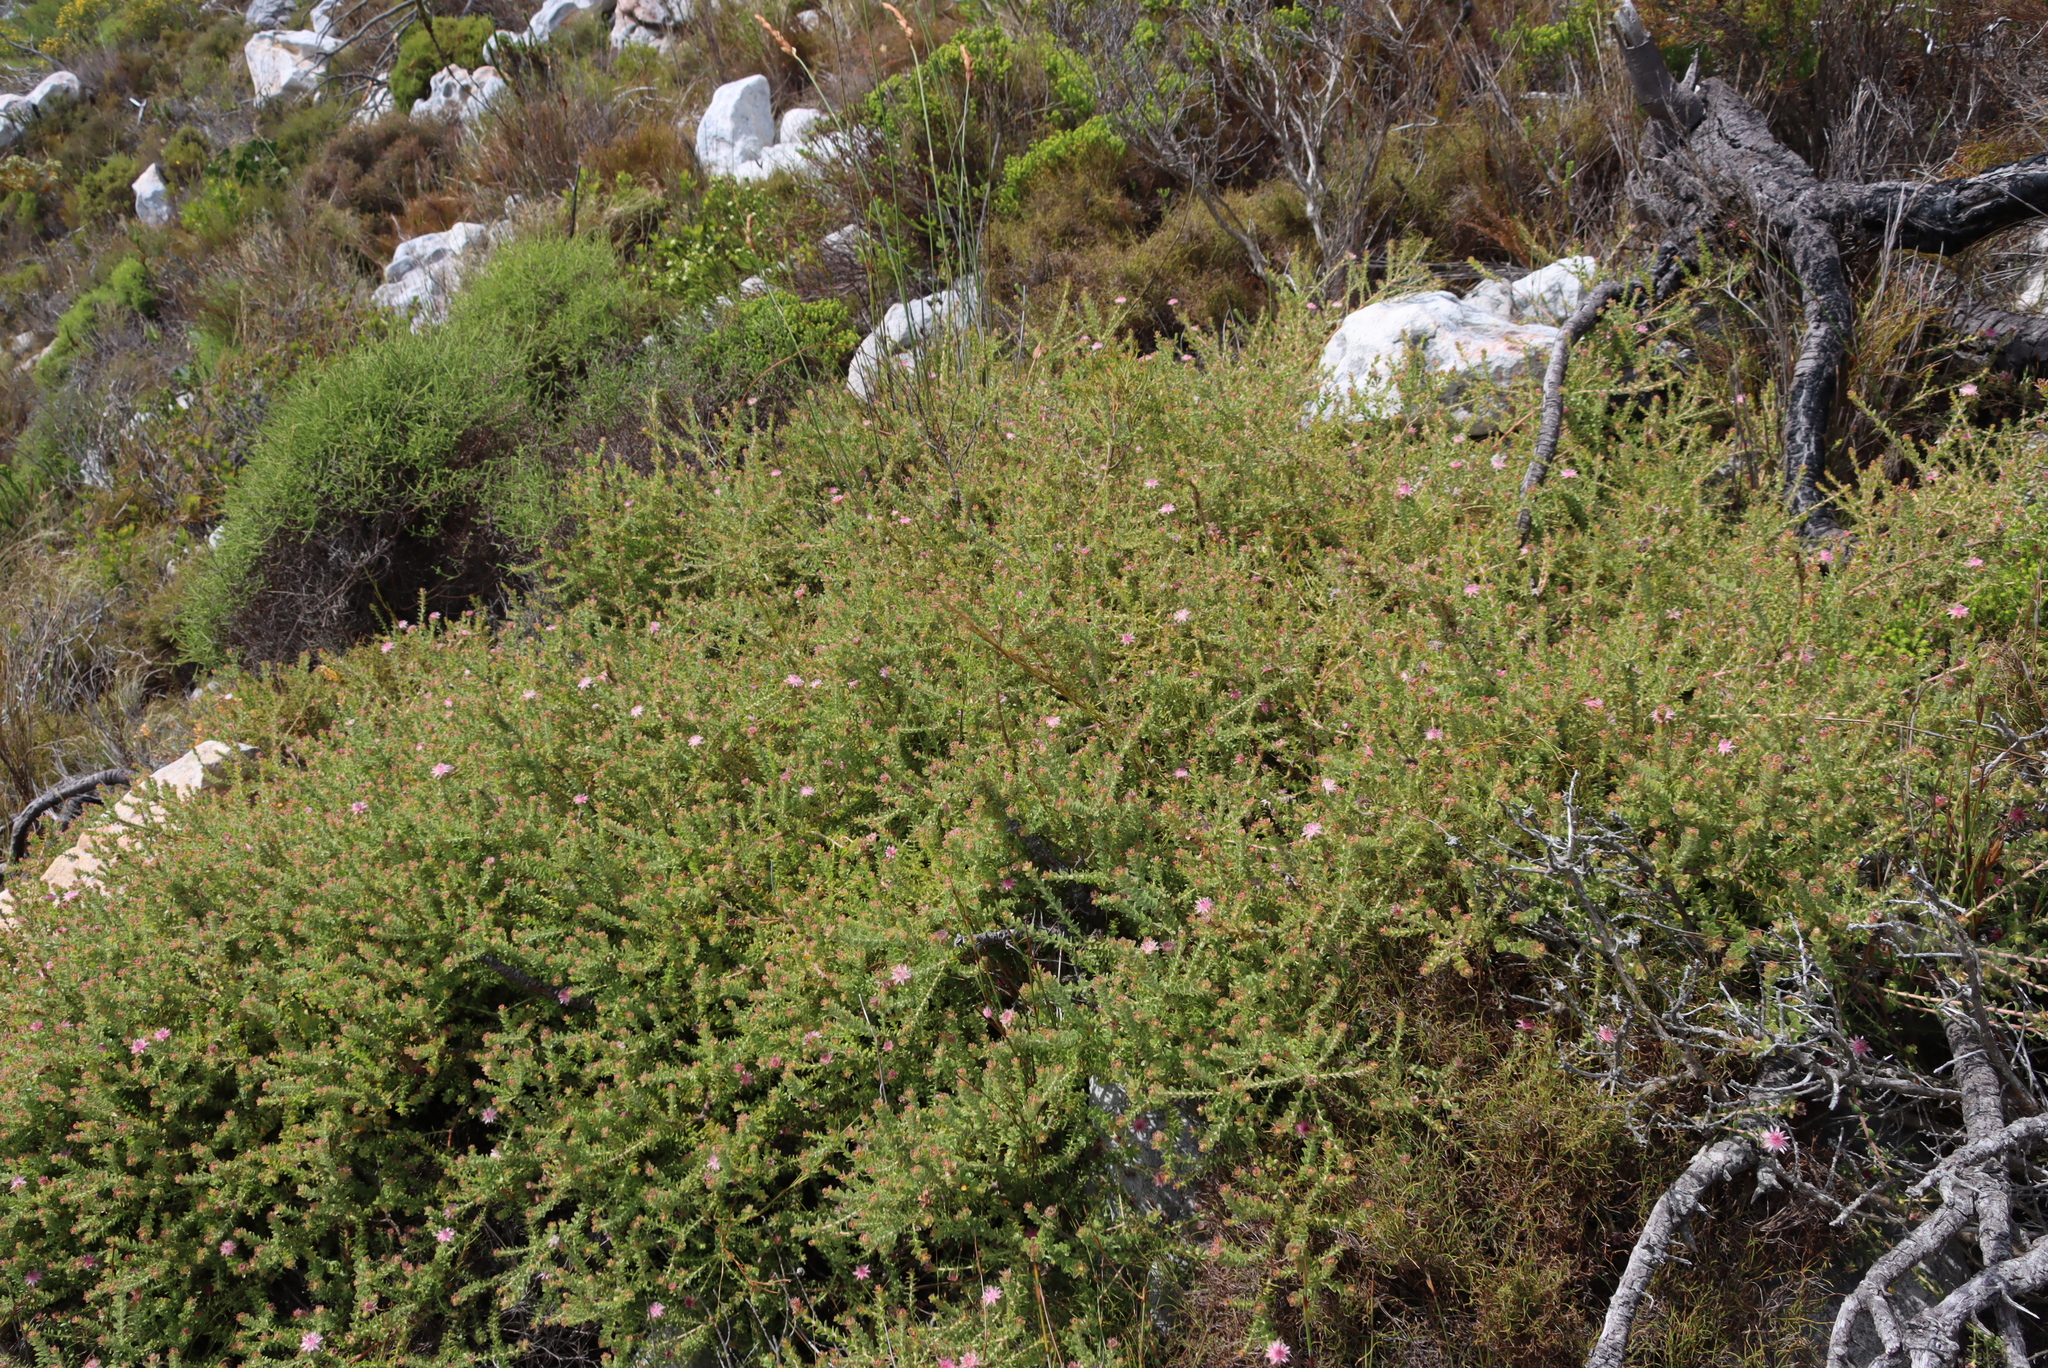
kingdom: Plantae
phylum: Tracheophyta
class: Magnoliopsida
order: Proteales
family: Proteaceae
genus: Diastella
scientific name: Diastella divaricata
